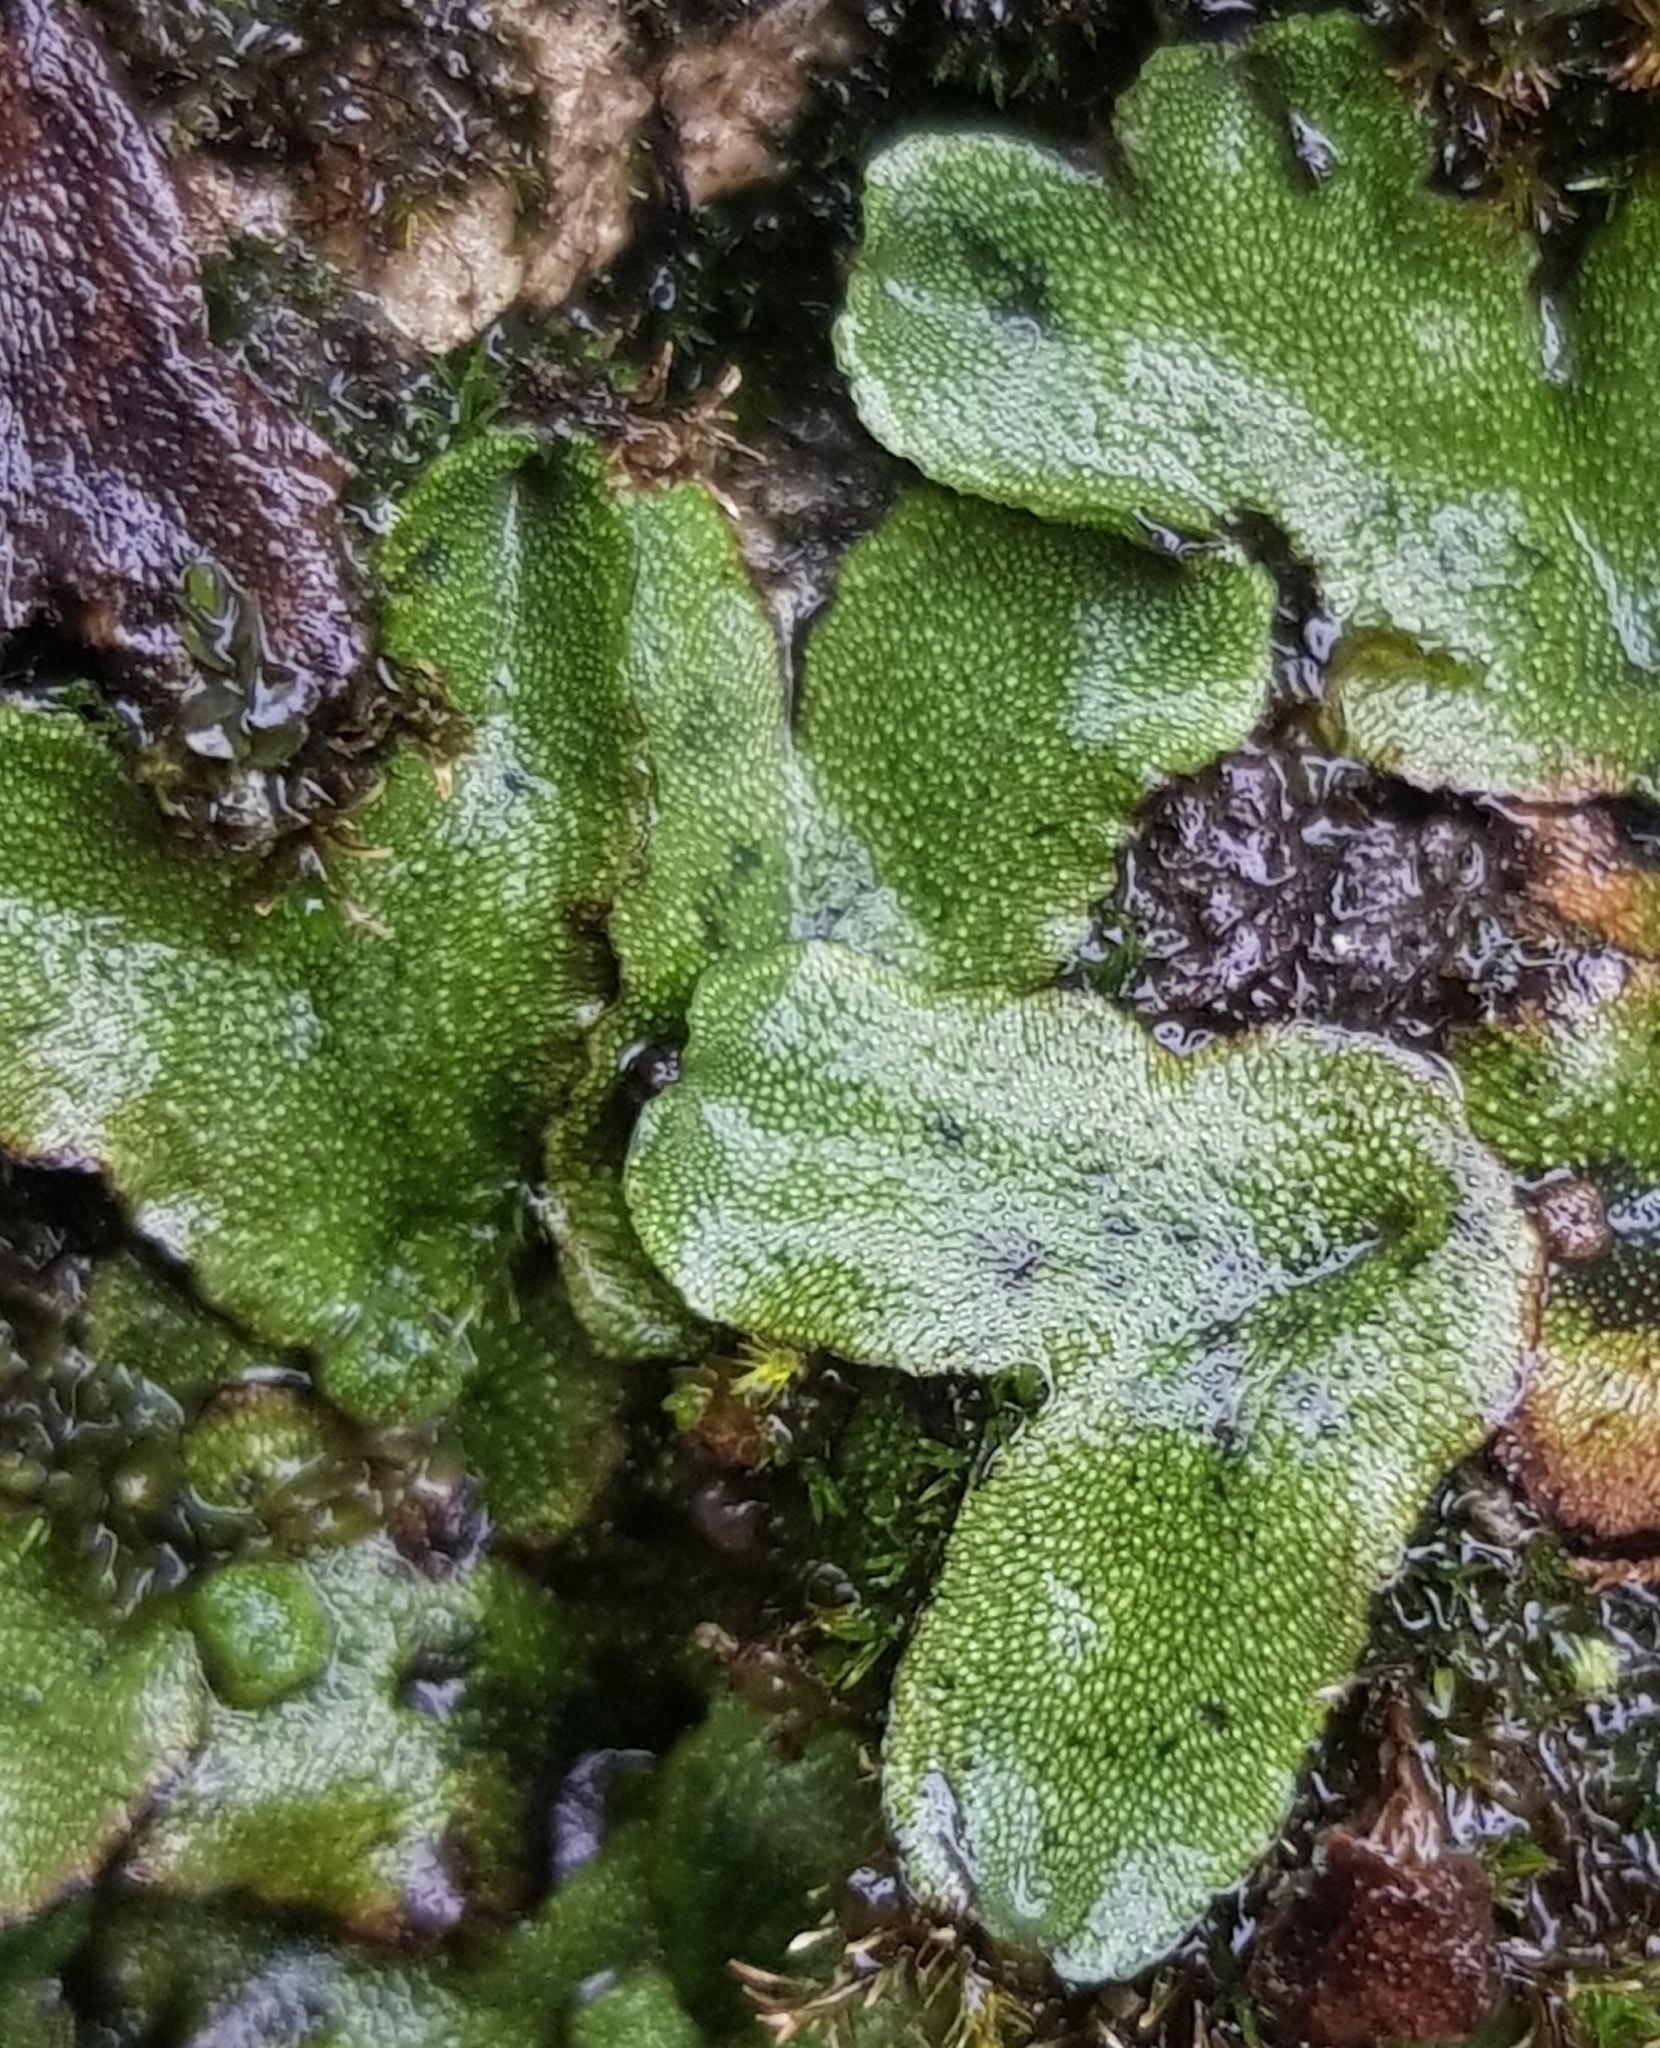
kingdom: Plantae
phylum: Marchantiophyta
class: Marchantiopsida
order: Marchantiales
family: Conocephalaceae
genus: Conocephalum
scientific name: Conocephalum conicum
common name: Great scented liverwort
